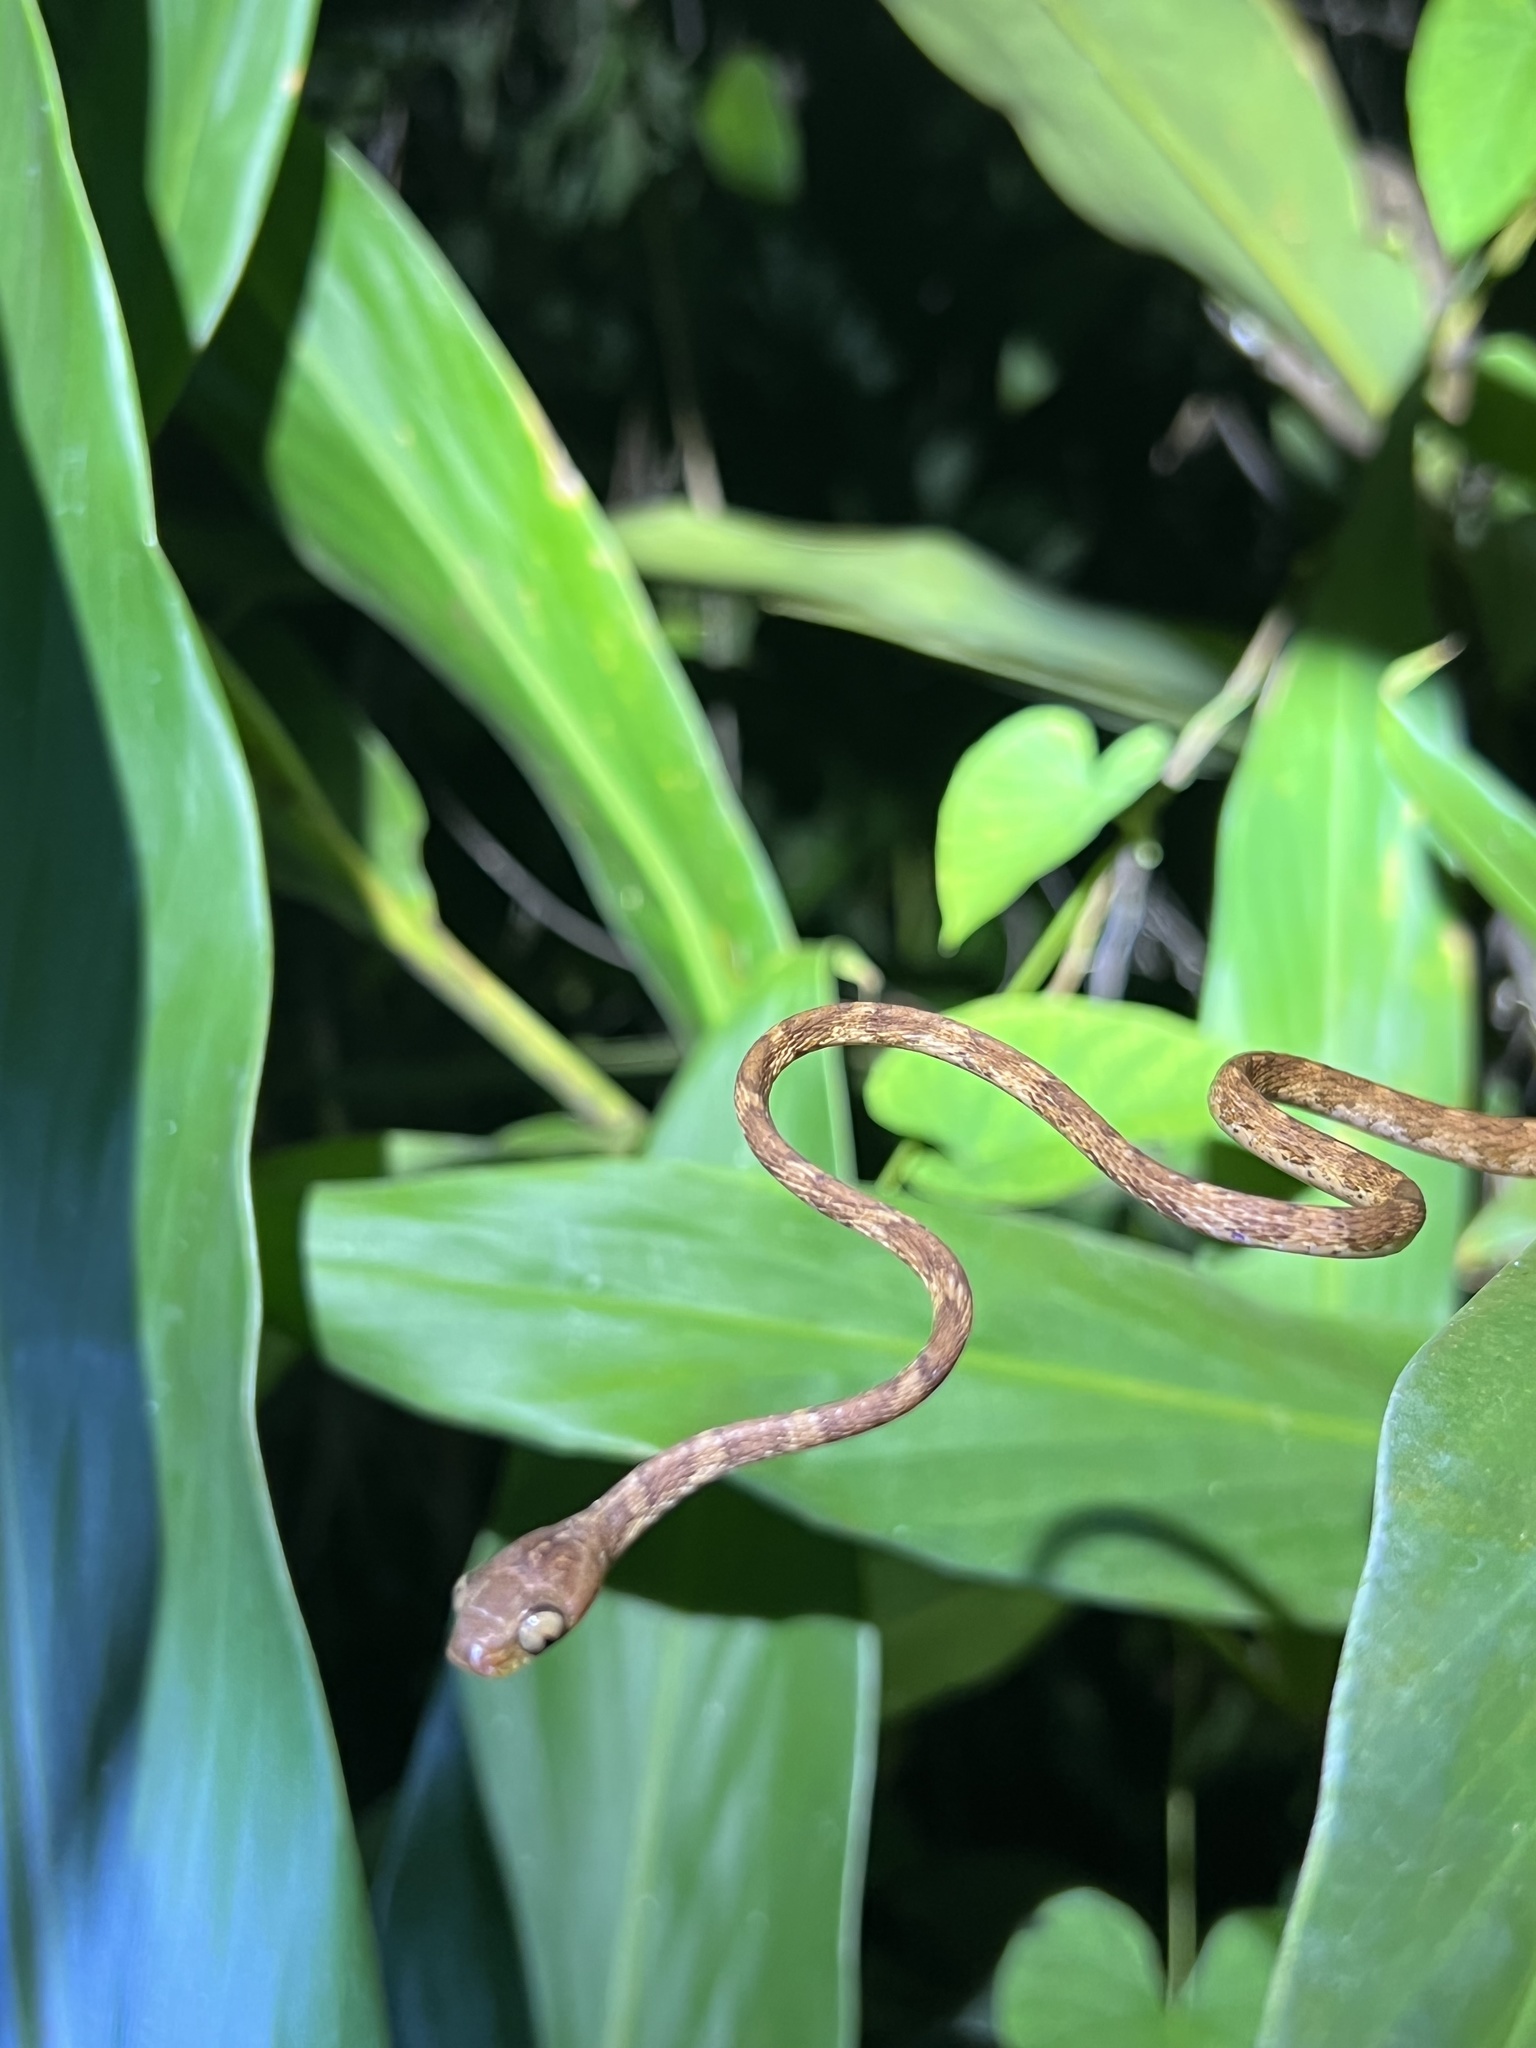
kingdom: Animalia
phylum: Chordata
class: Squamata
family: Colubridae
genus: Imantodes
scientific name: Imantodes cenchoa
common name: Blunthead tree snake
